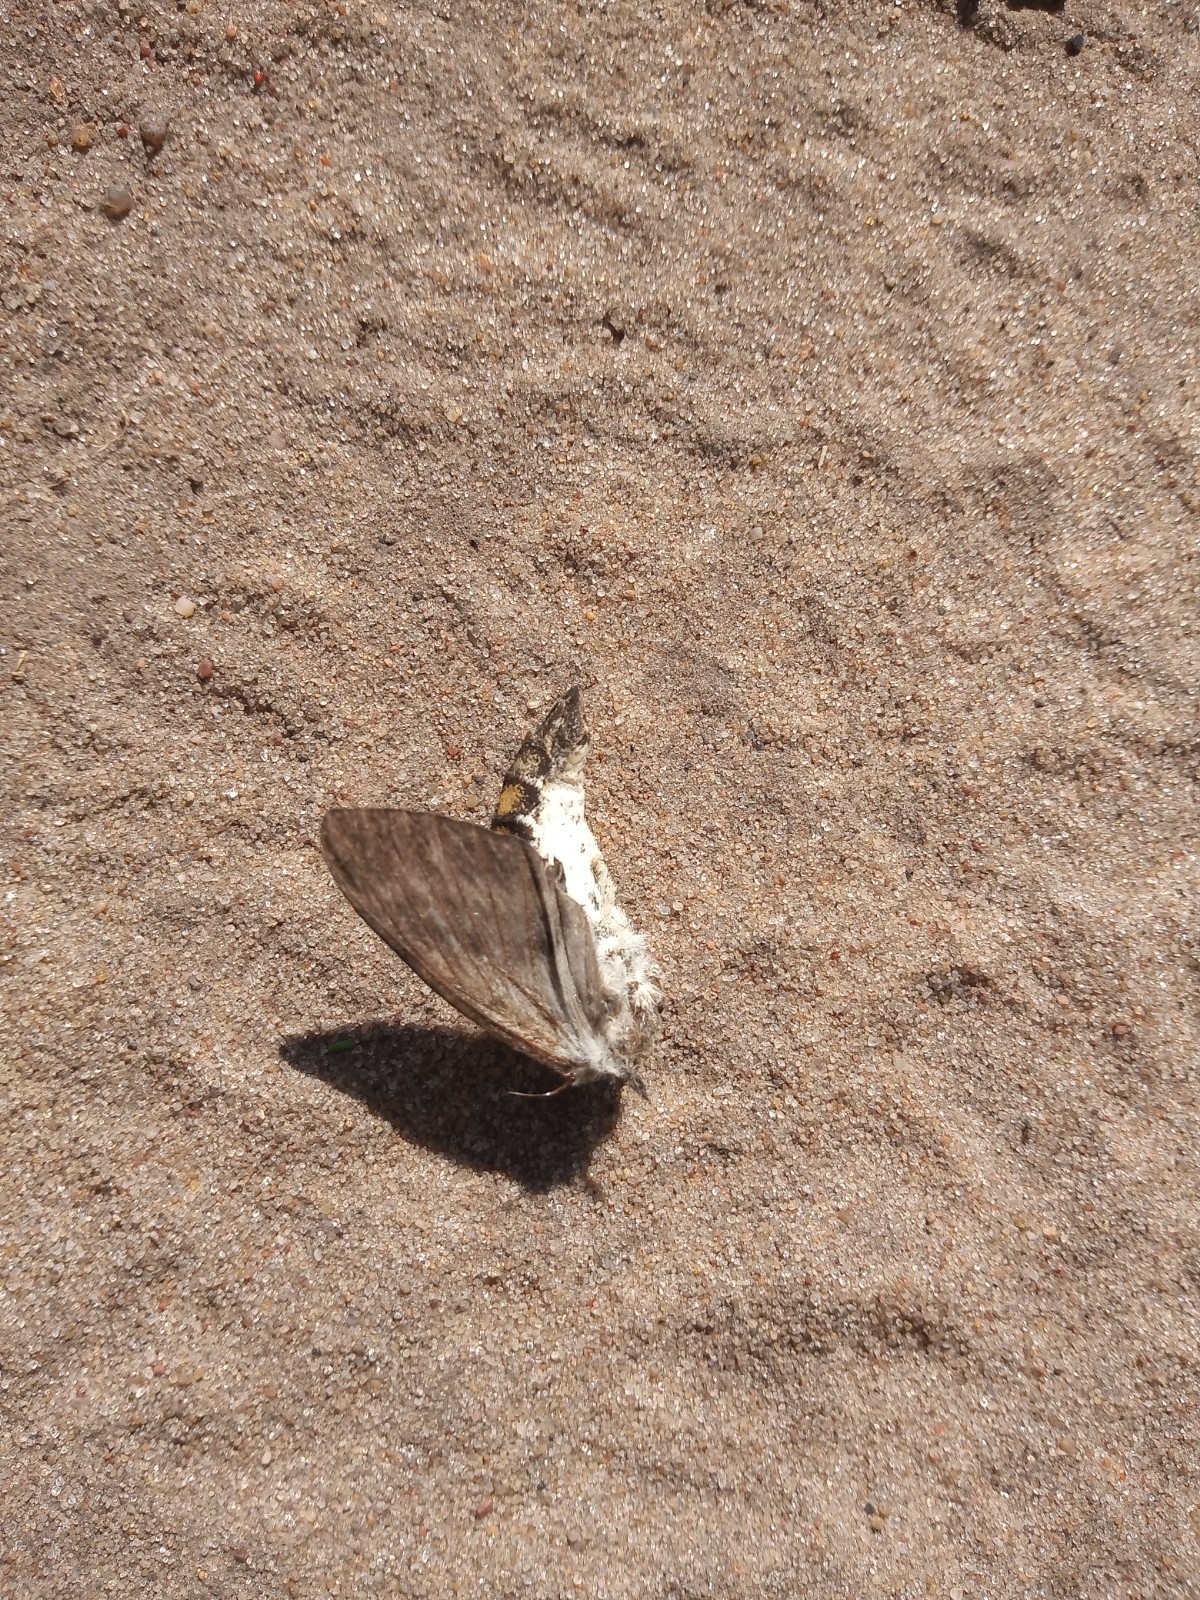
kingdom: Animalia
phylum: Arthropoda
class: Insecta
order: Lepidoptera
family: Sphingidae
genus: Manduca
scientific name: Manduca afflicta
